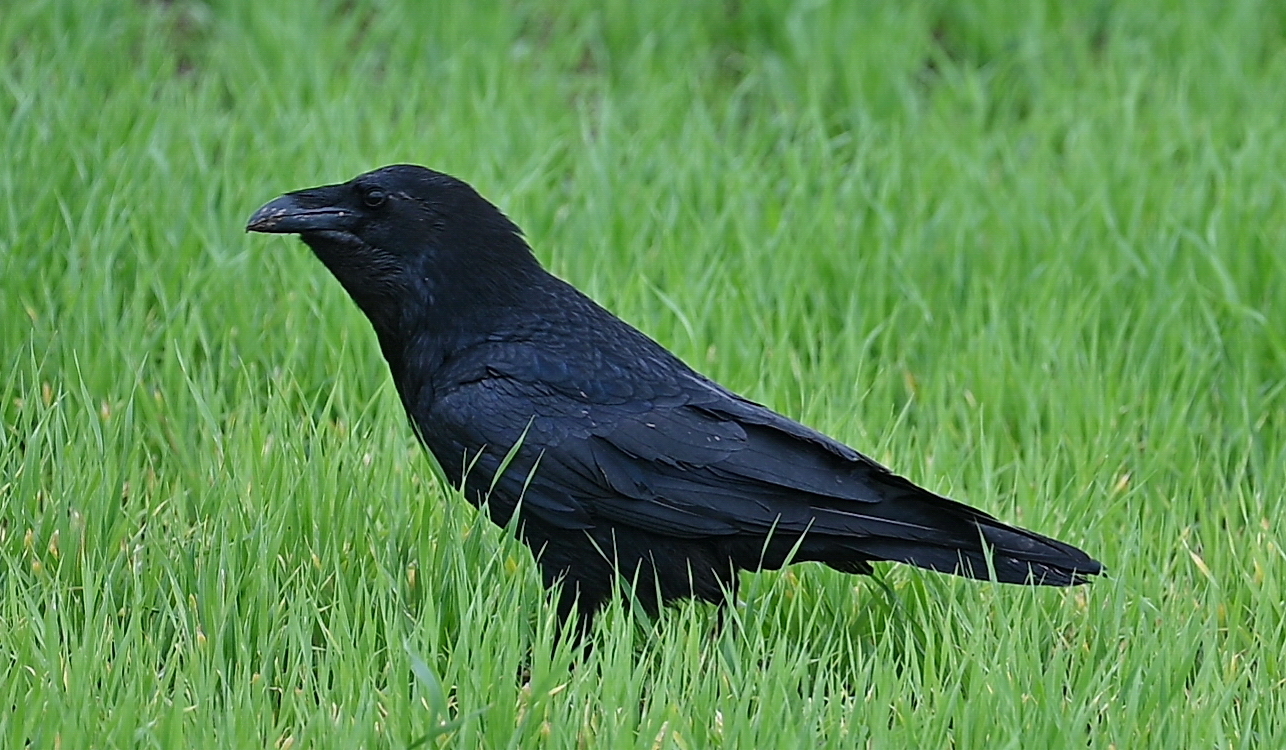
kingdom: Animalia
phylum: Chordata
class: Aves
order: Passeriformes
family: Corvidae
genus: Corvus
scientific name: Corvus corax
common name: Common raven
